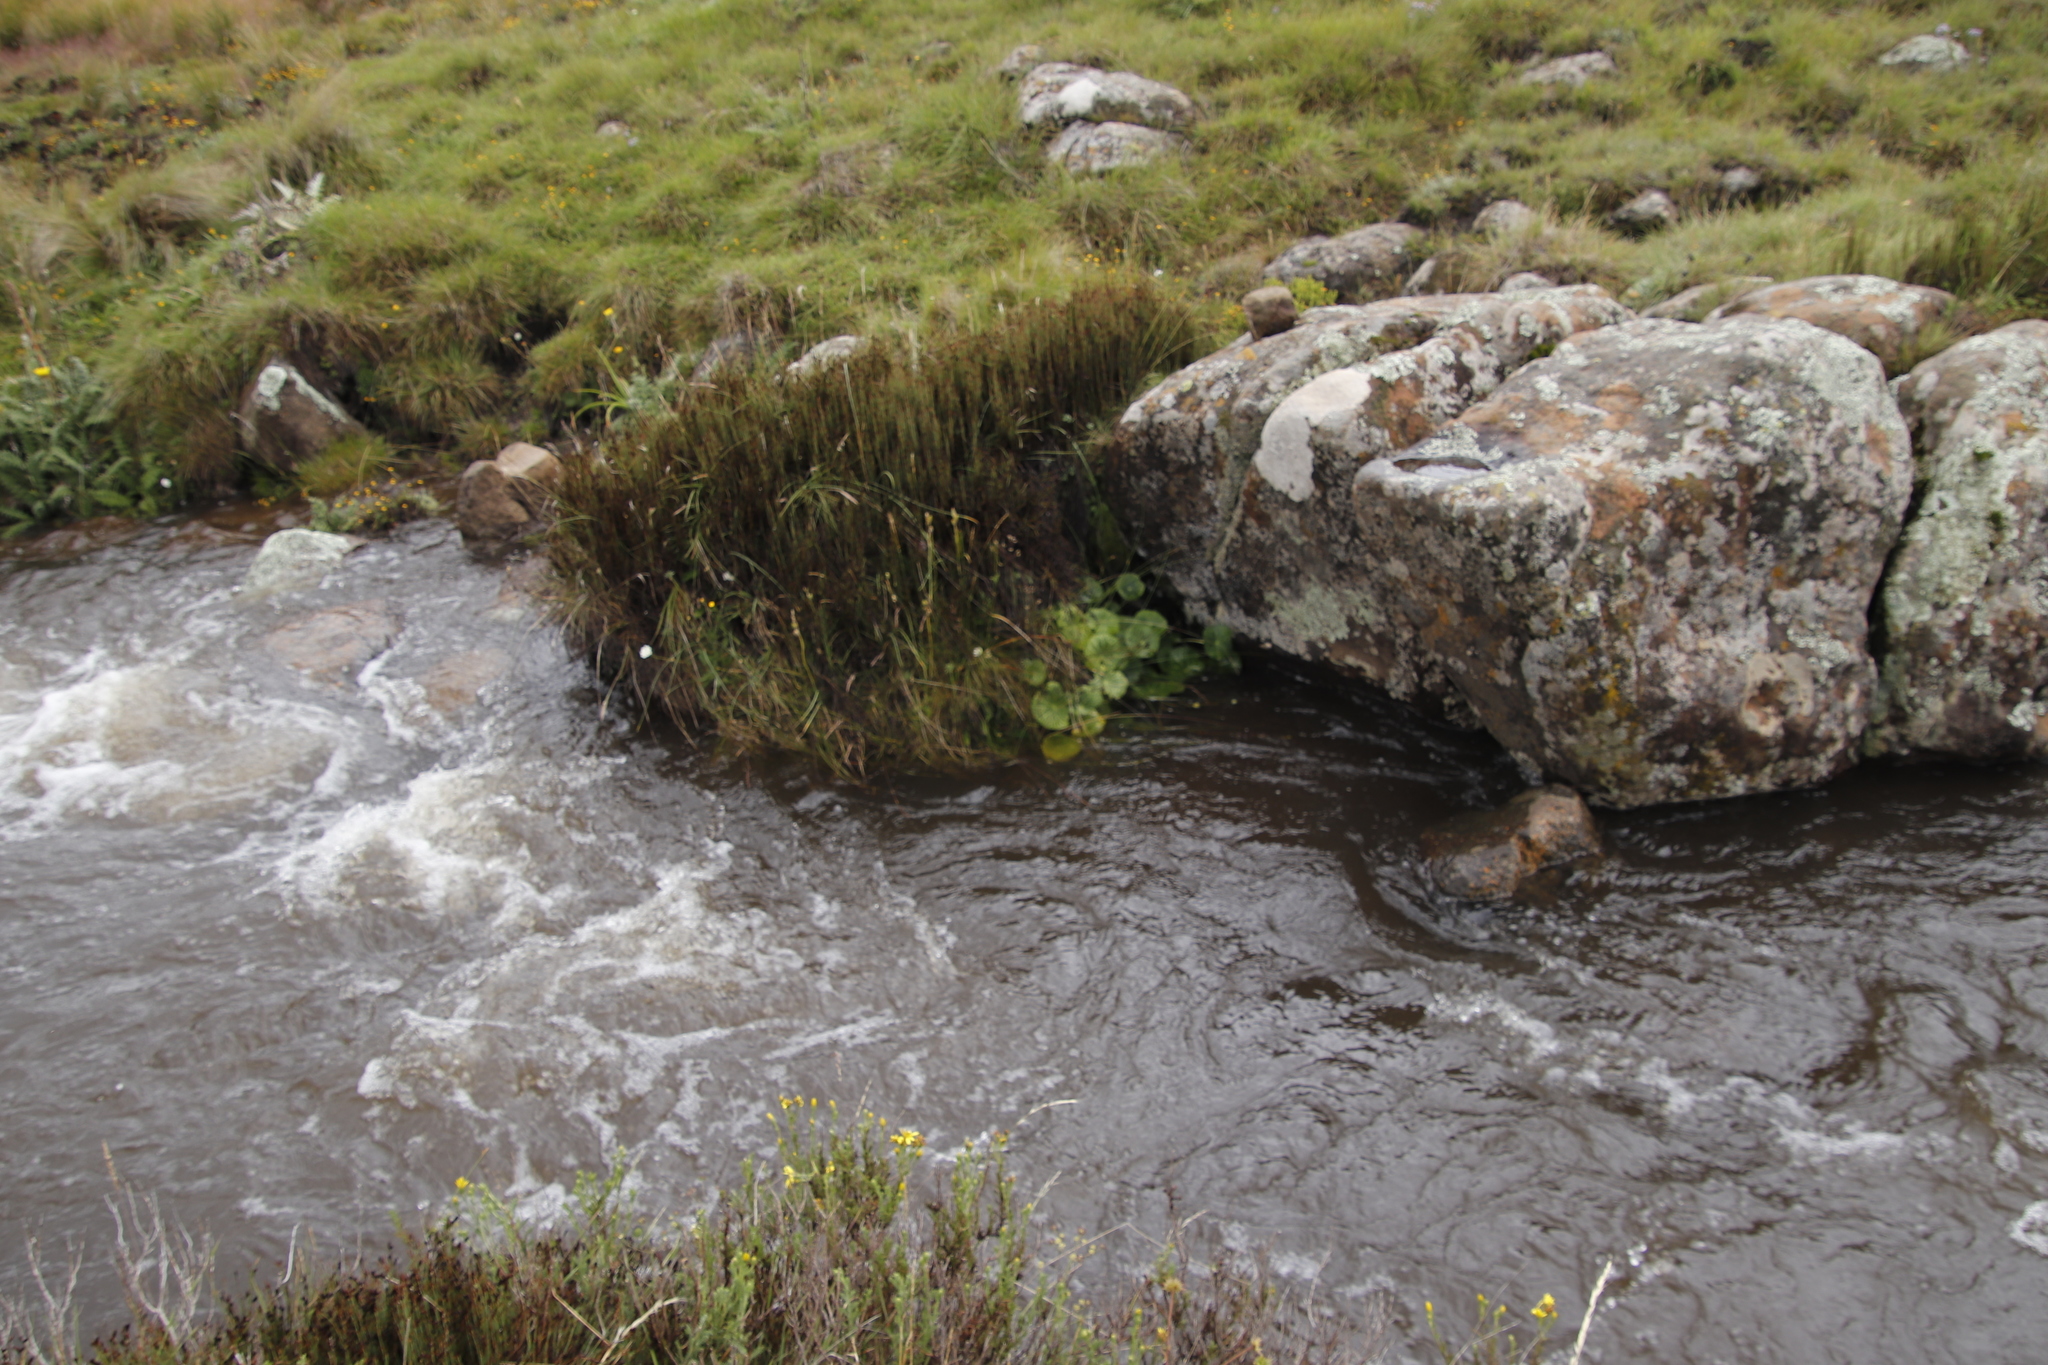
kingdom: Plantae
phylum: Tracheophyta
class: Magnoliopsida
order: Ranunculales
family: Ranunculaceae
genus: Peltocalathos
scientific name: Peltocalathos baurii
